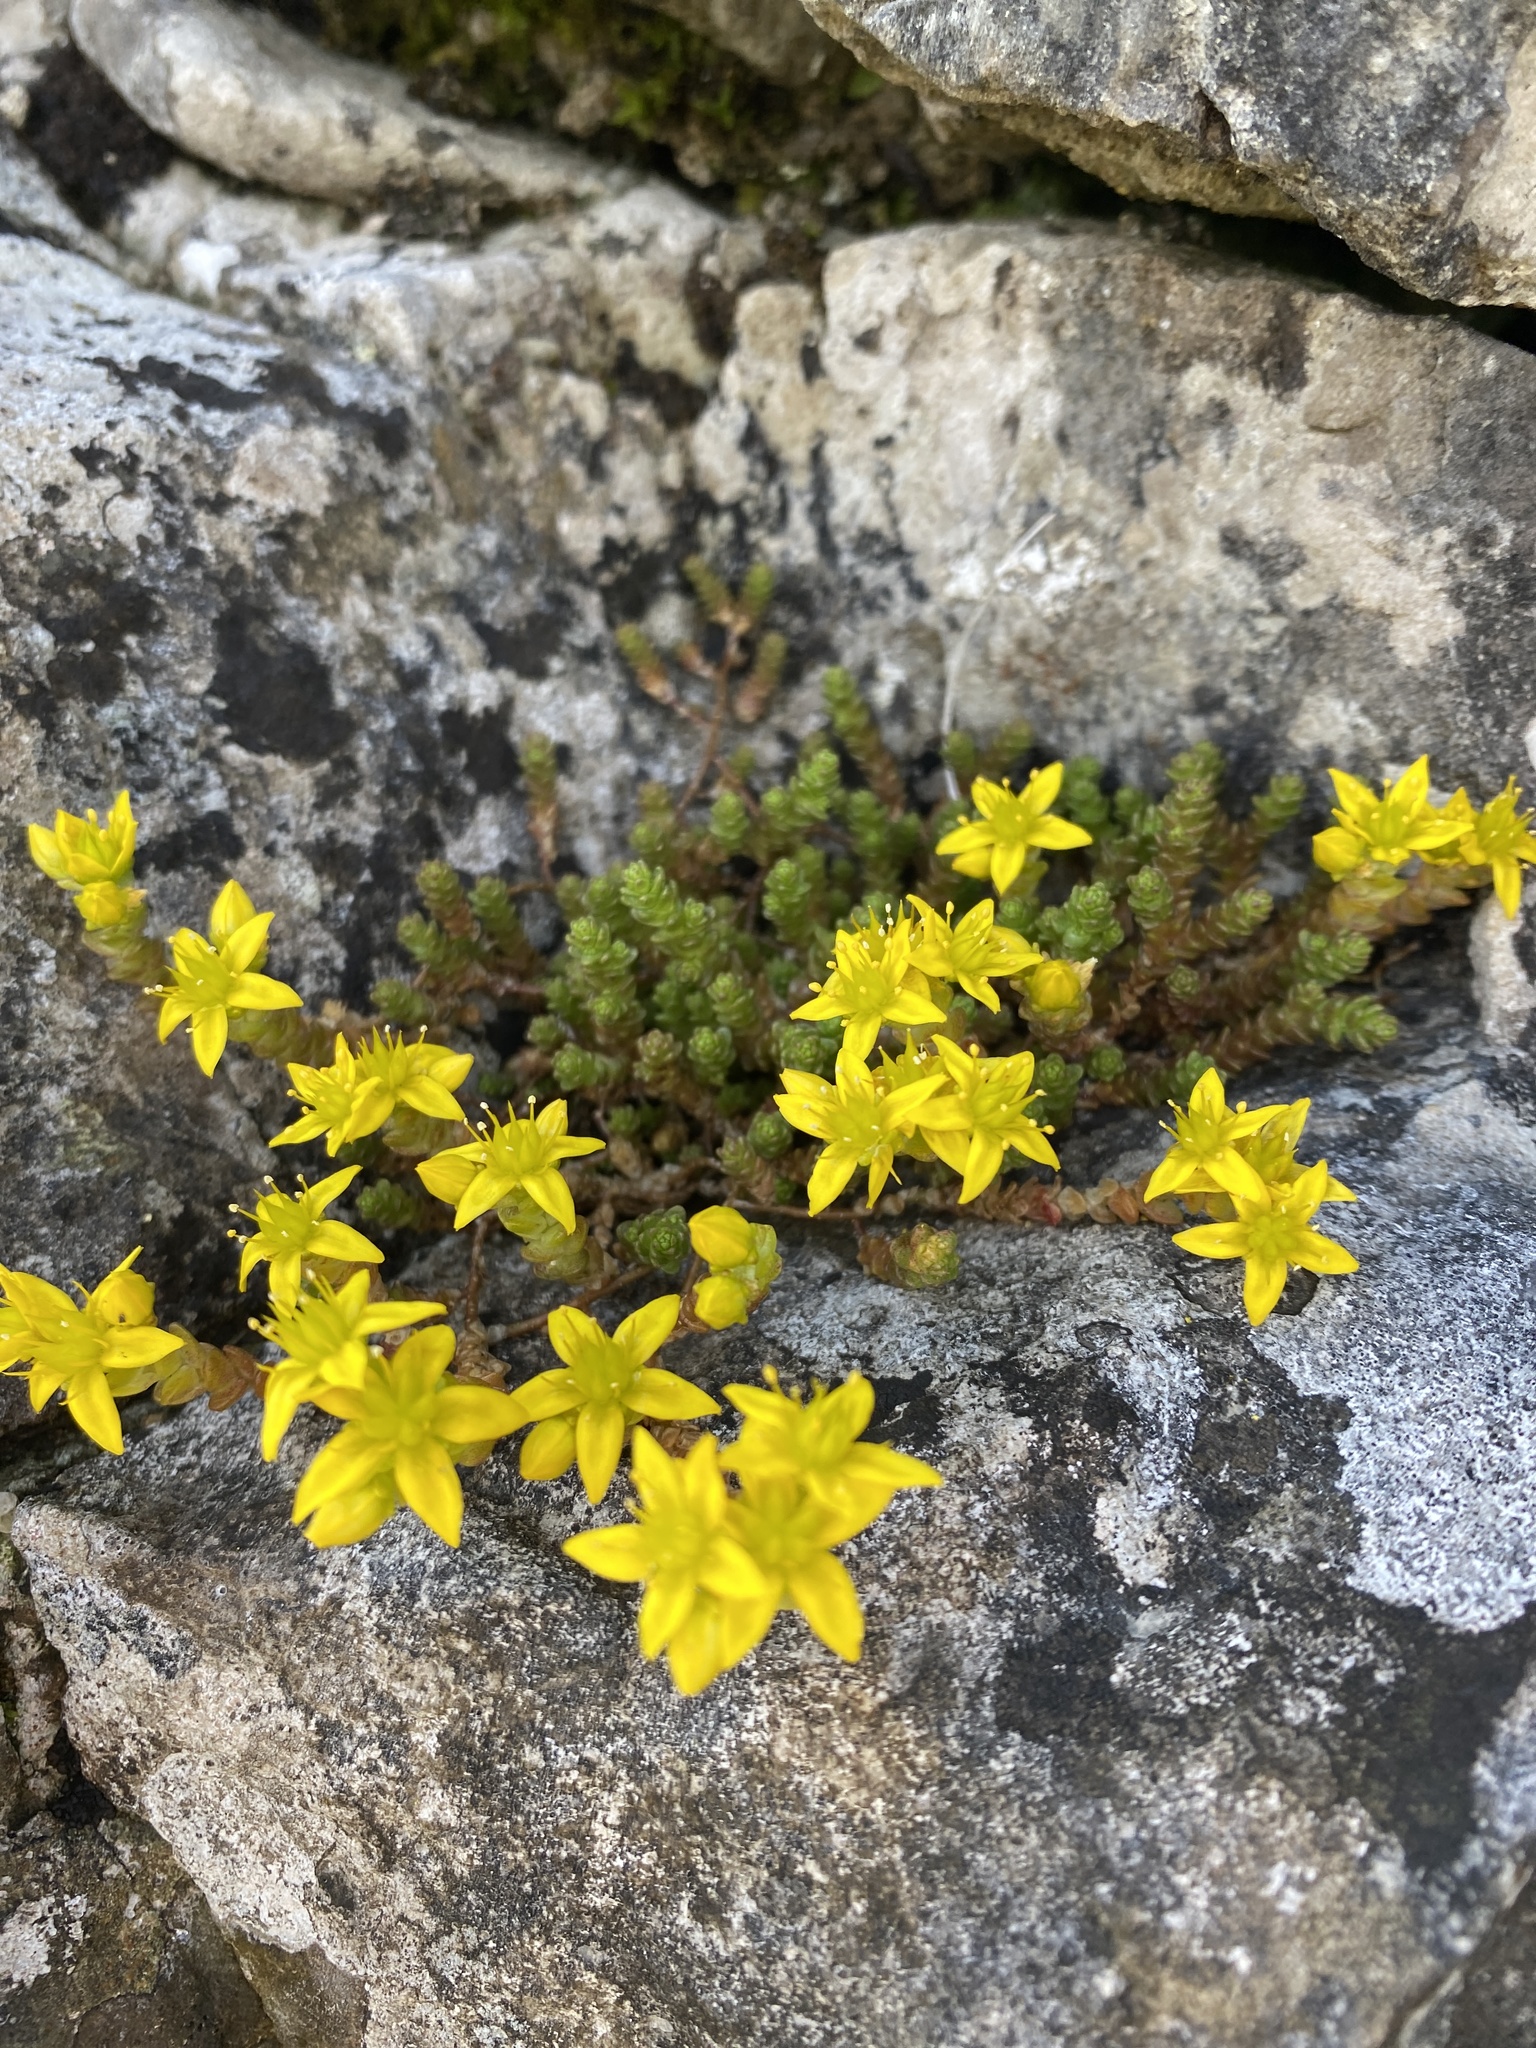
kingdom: Plantae
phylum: Tracheophyta
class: Magnoliopsida
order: Saxifragales
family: Crassulaceae
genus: Sedum
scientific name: Sedum acre
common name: Biting stonecrop
